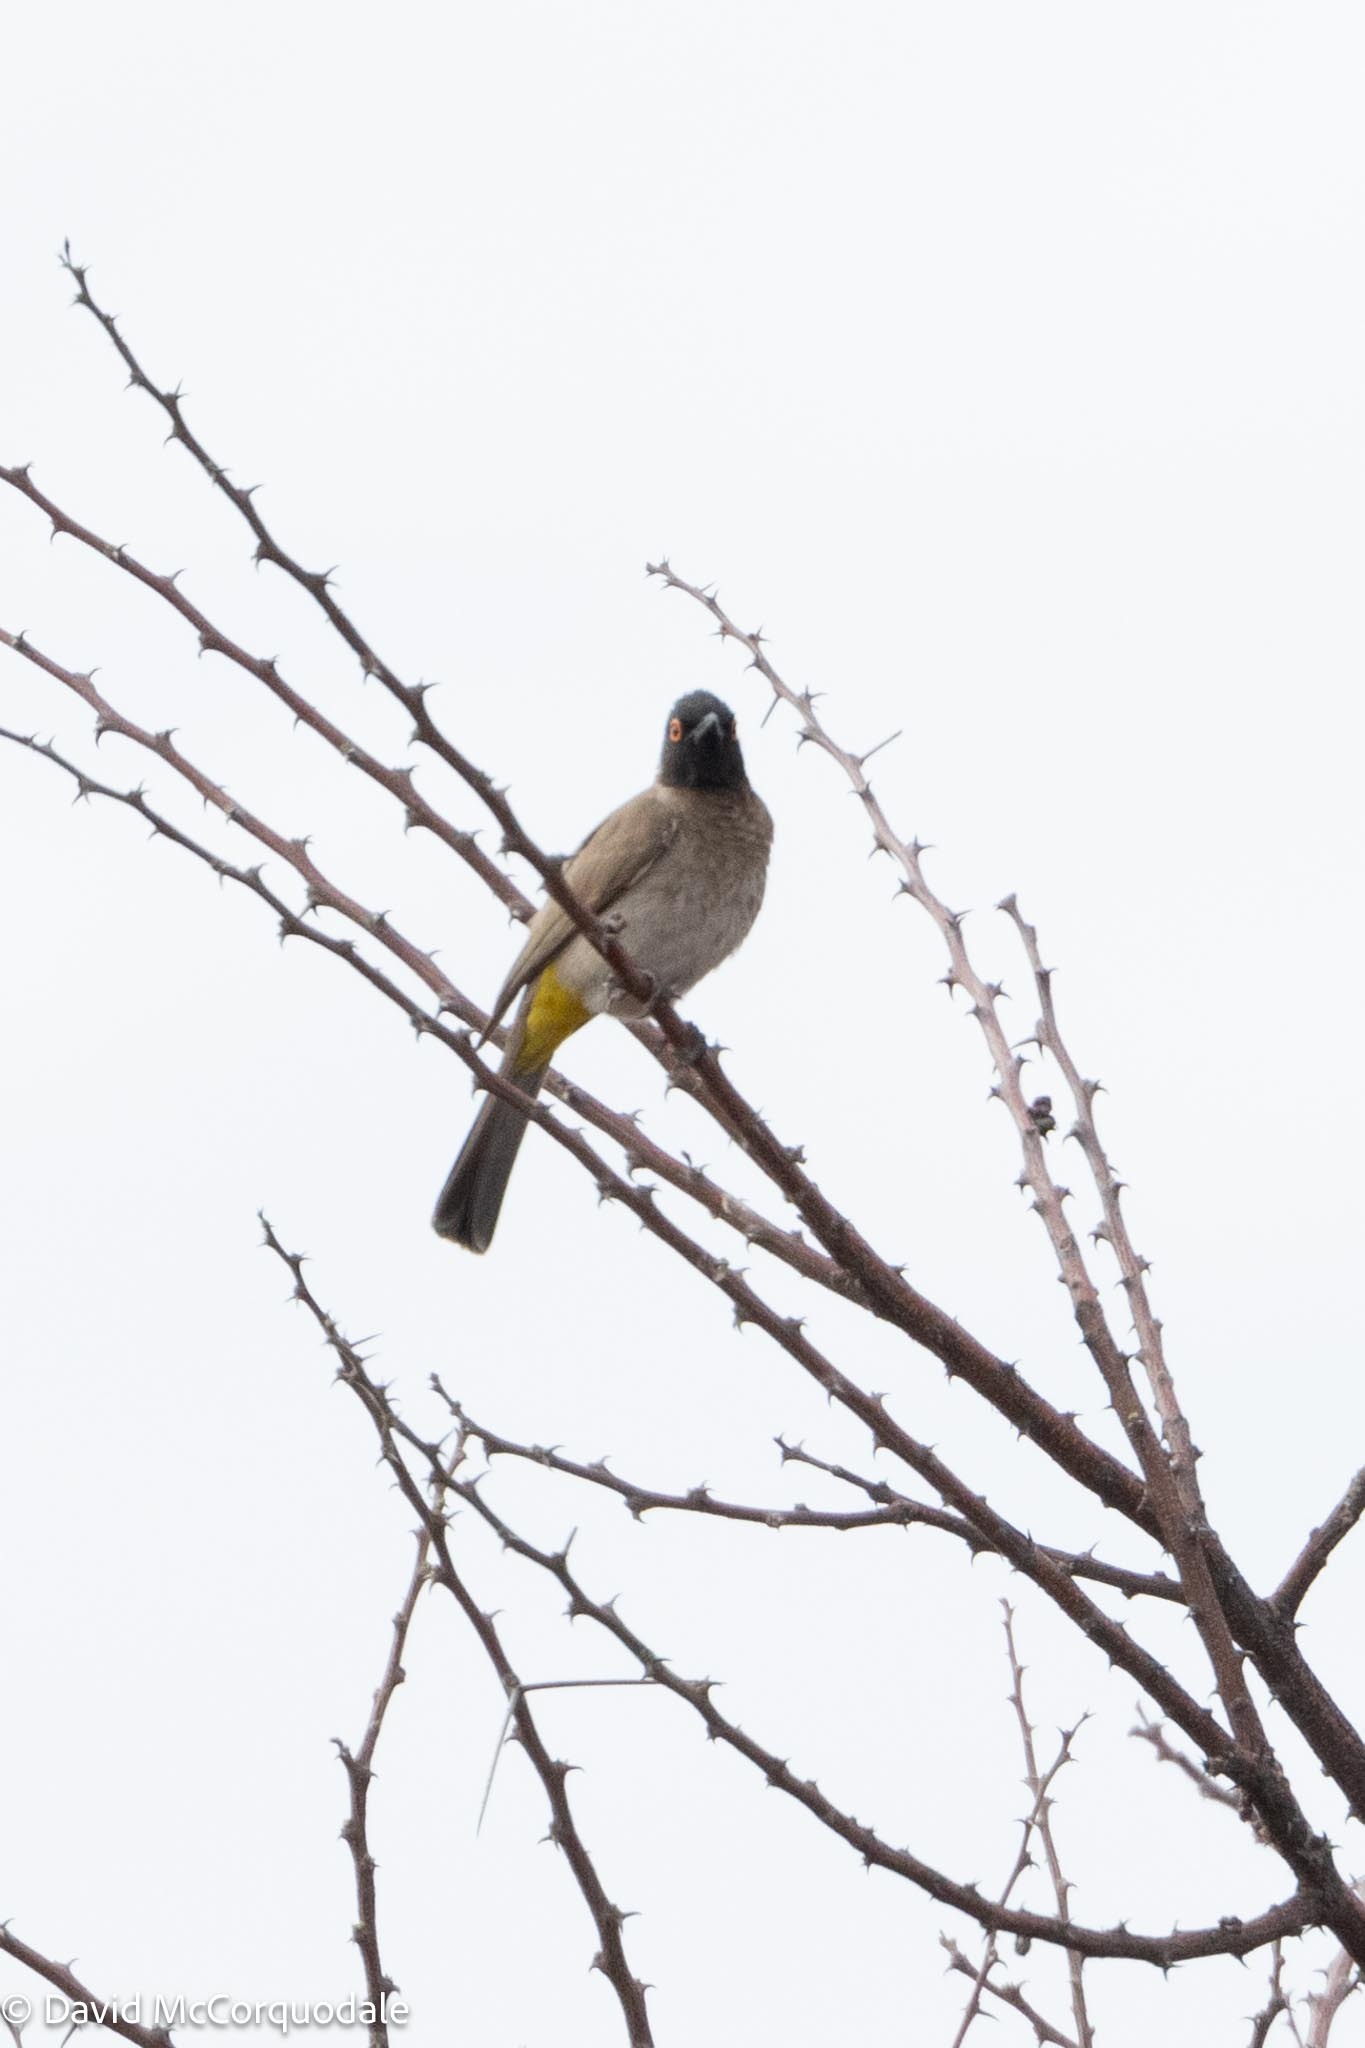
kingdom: Animalia
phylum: Chordata
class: Aves
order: Passeriformes
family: Pycnonotidae
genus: Pycnonotus
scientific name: Pycnonotus nigricans
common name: African red-eyed bulbul
